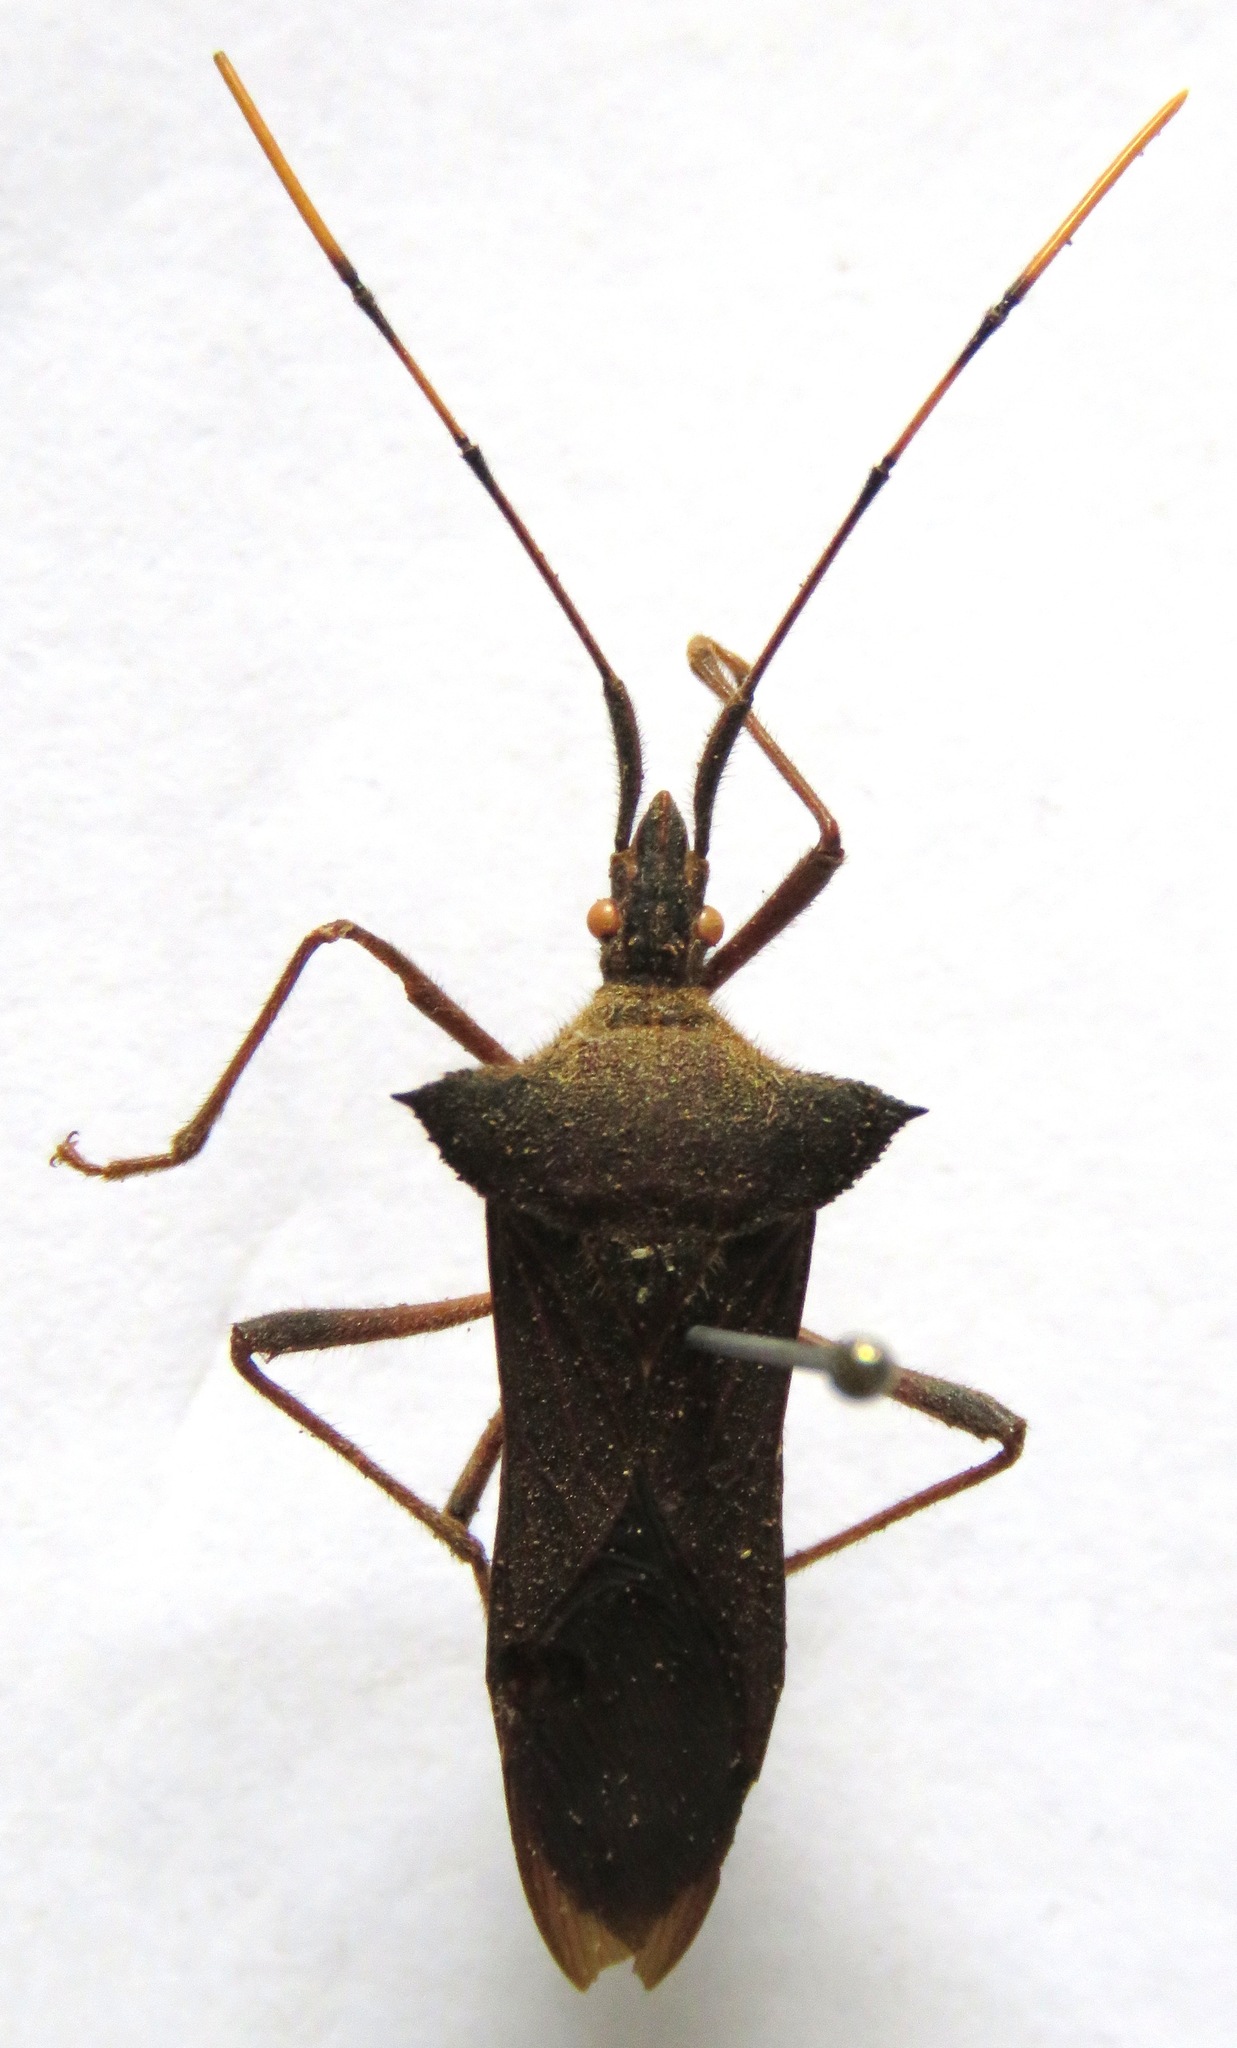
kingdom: Animalia
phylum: Arthropoda
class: Insecta
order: Hemiptera
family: Coreidae
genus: Leptoglossus
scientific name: Leptoglossus humeralis
